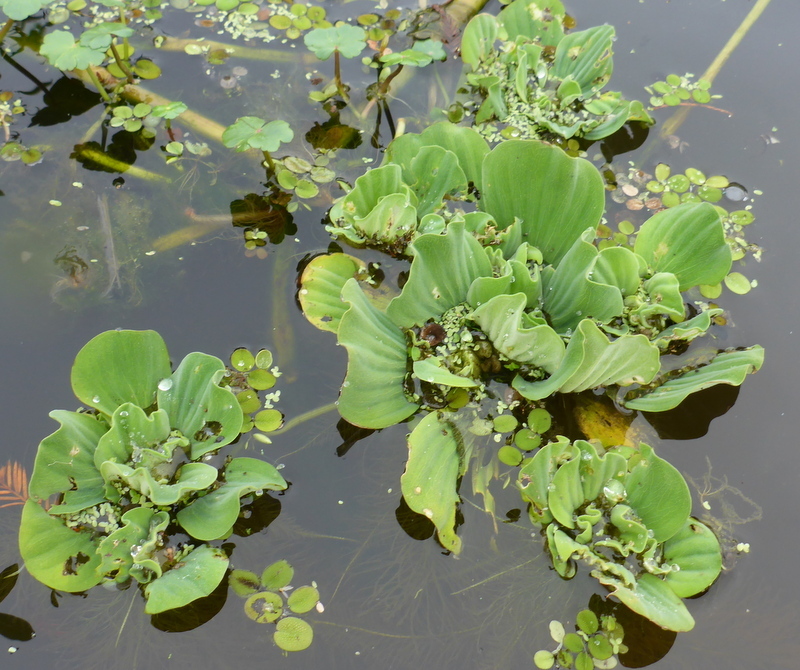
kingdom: Plantae
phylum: Tracheophyta
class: Liliopsida
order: Alismatales
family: Araceae
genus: Pistia
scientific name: Pistia stratiotes
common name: Water lettuce
